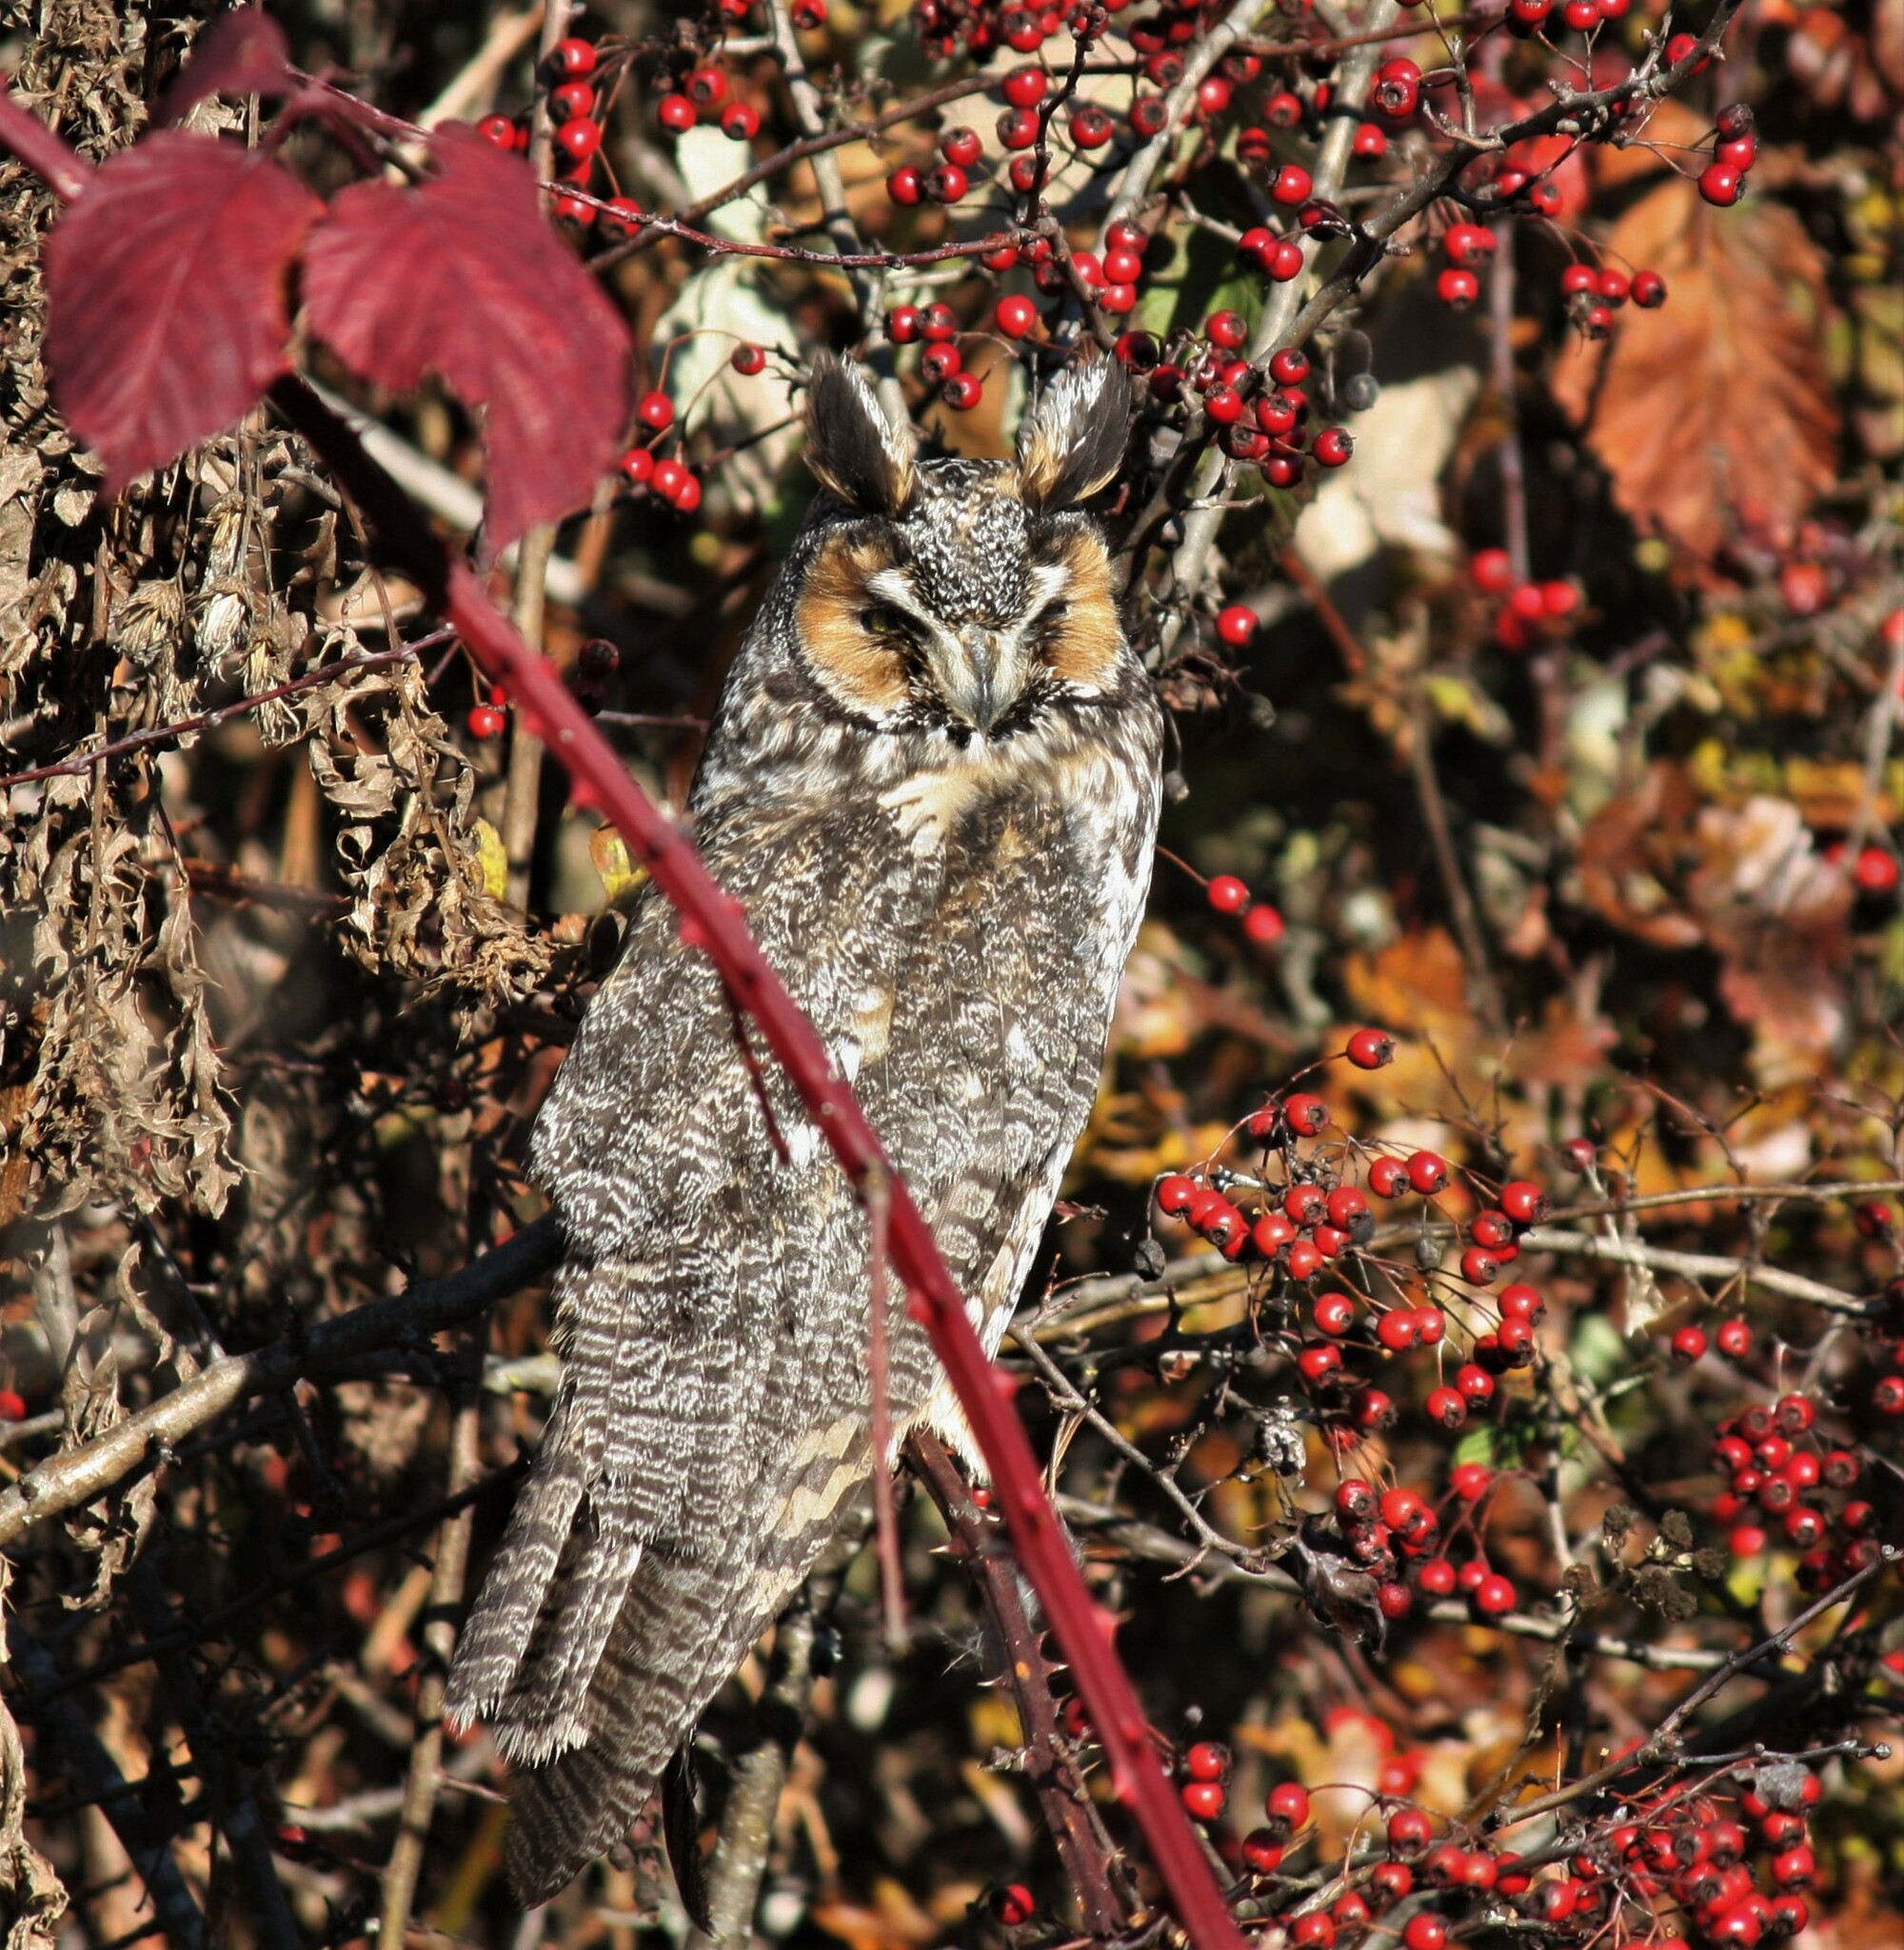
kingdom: Animalia
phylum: Chordata
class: Aves
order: Strigiformes
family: Strigidae
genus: Asio
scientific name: Asio otus
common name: Long-eared owl
